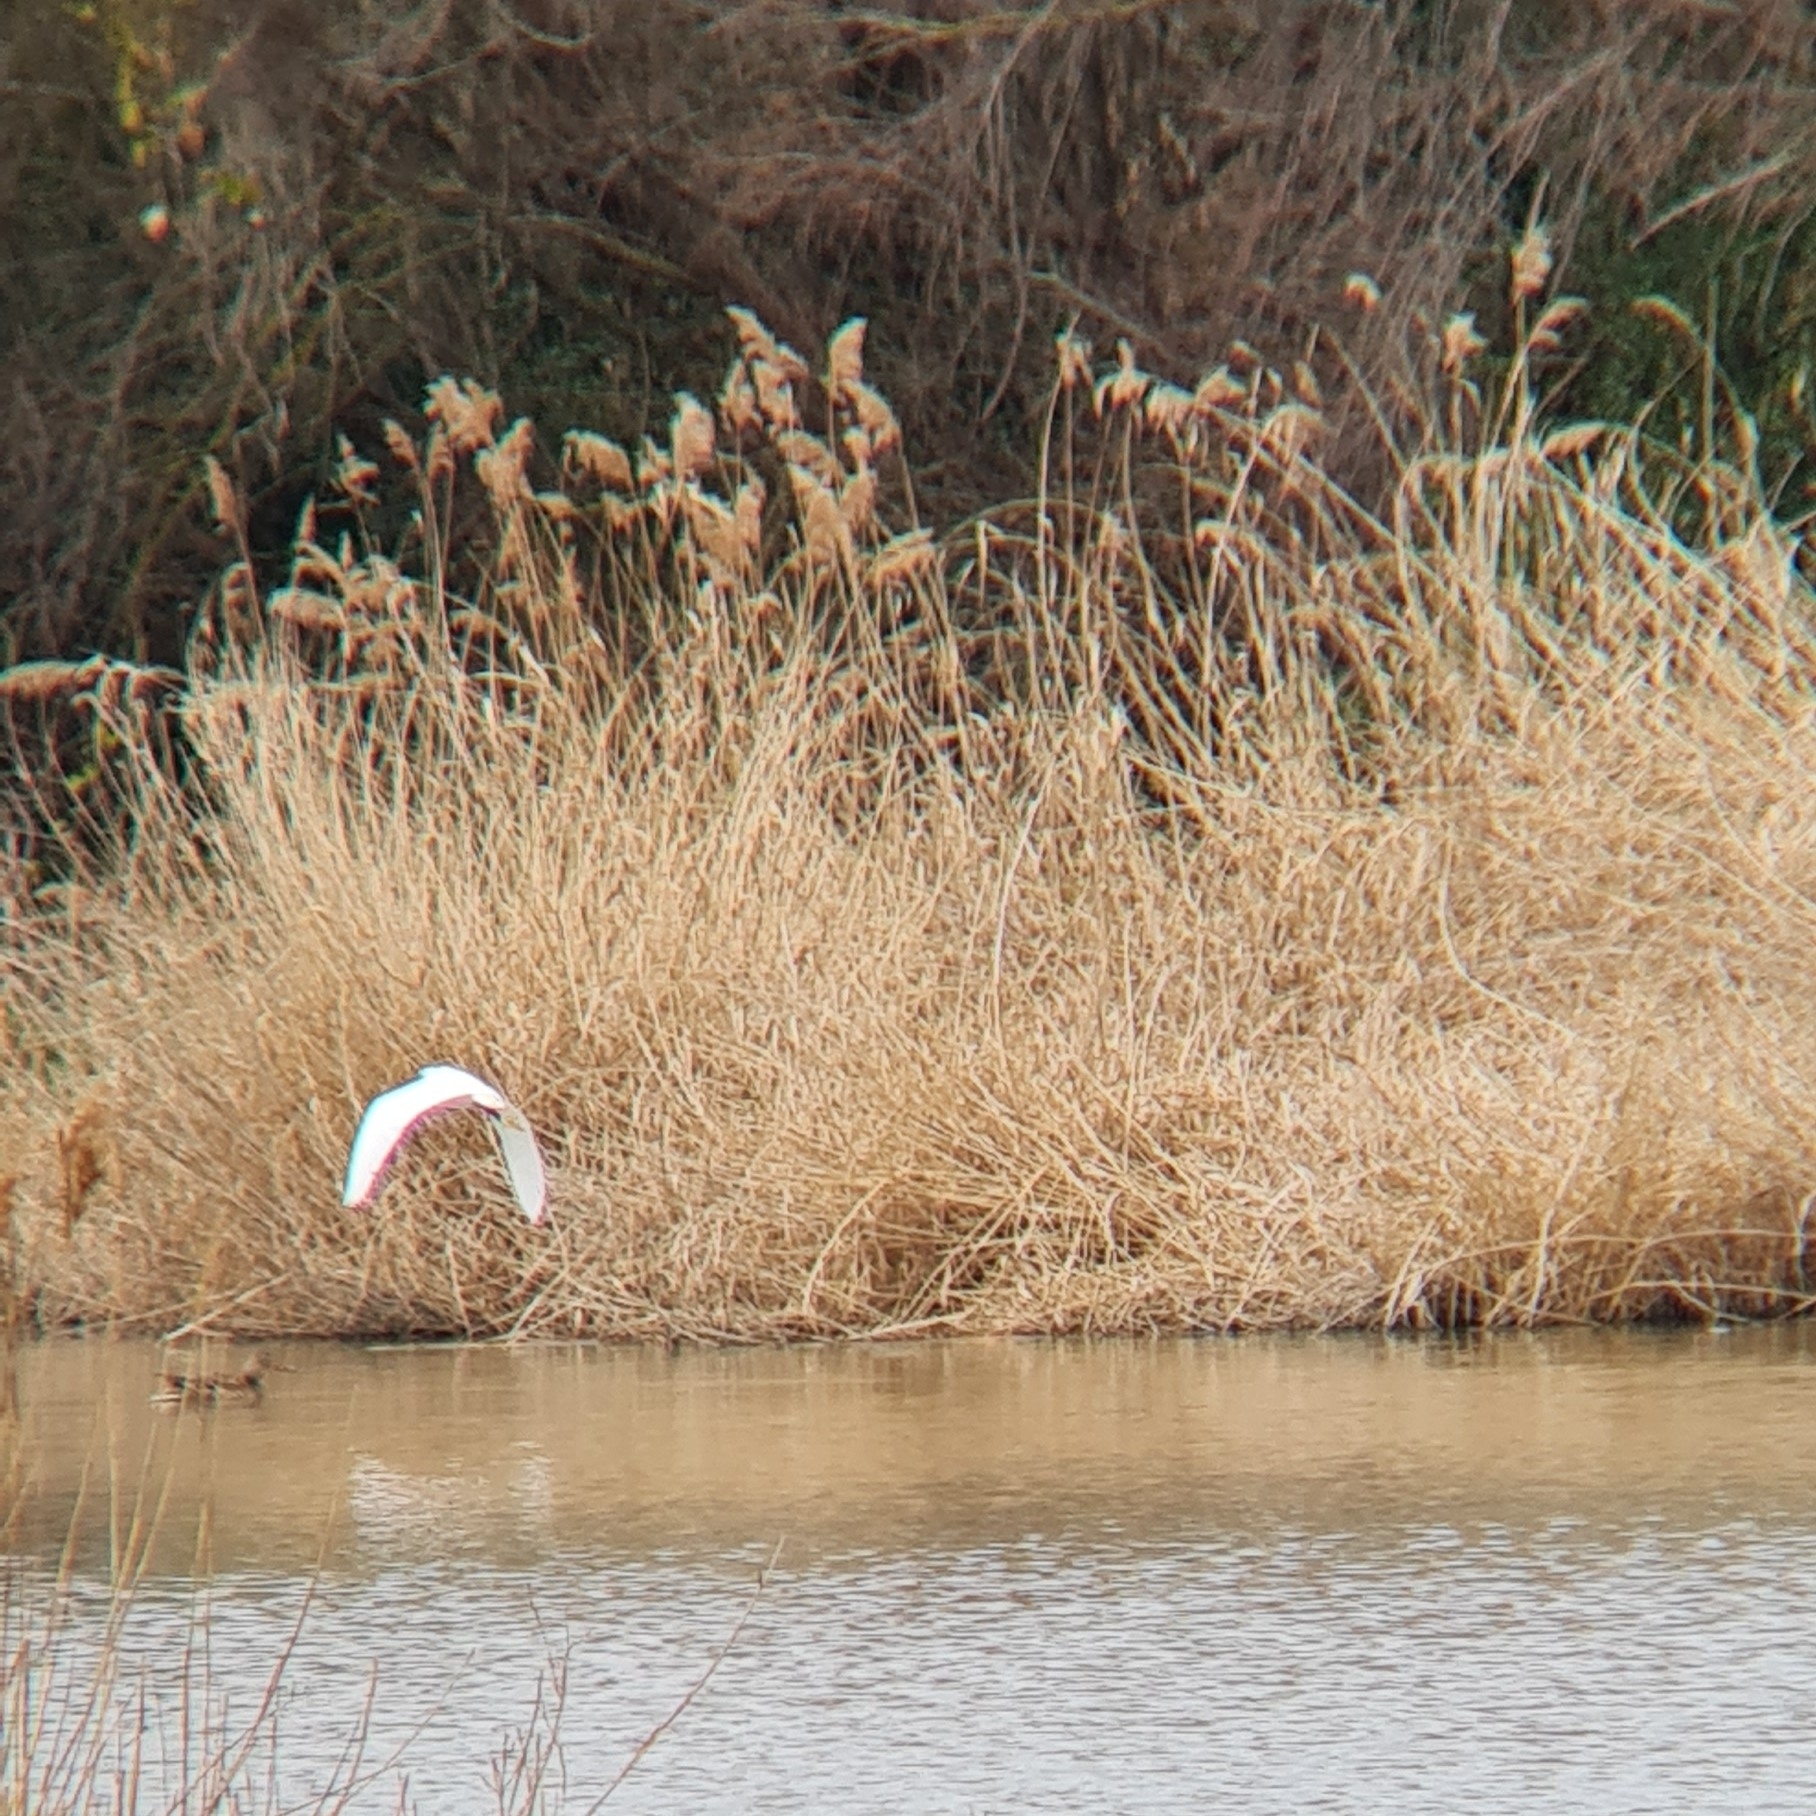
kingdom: Animalia
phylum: Chordata
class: Aves
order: Pelecaniformes
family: Ardeidae
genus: Egretta
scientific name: Egretta garzetta
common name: Little egret
